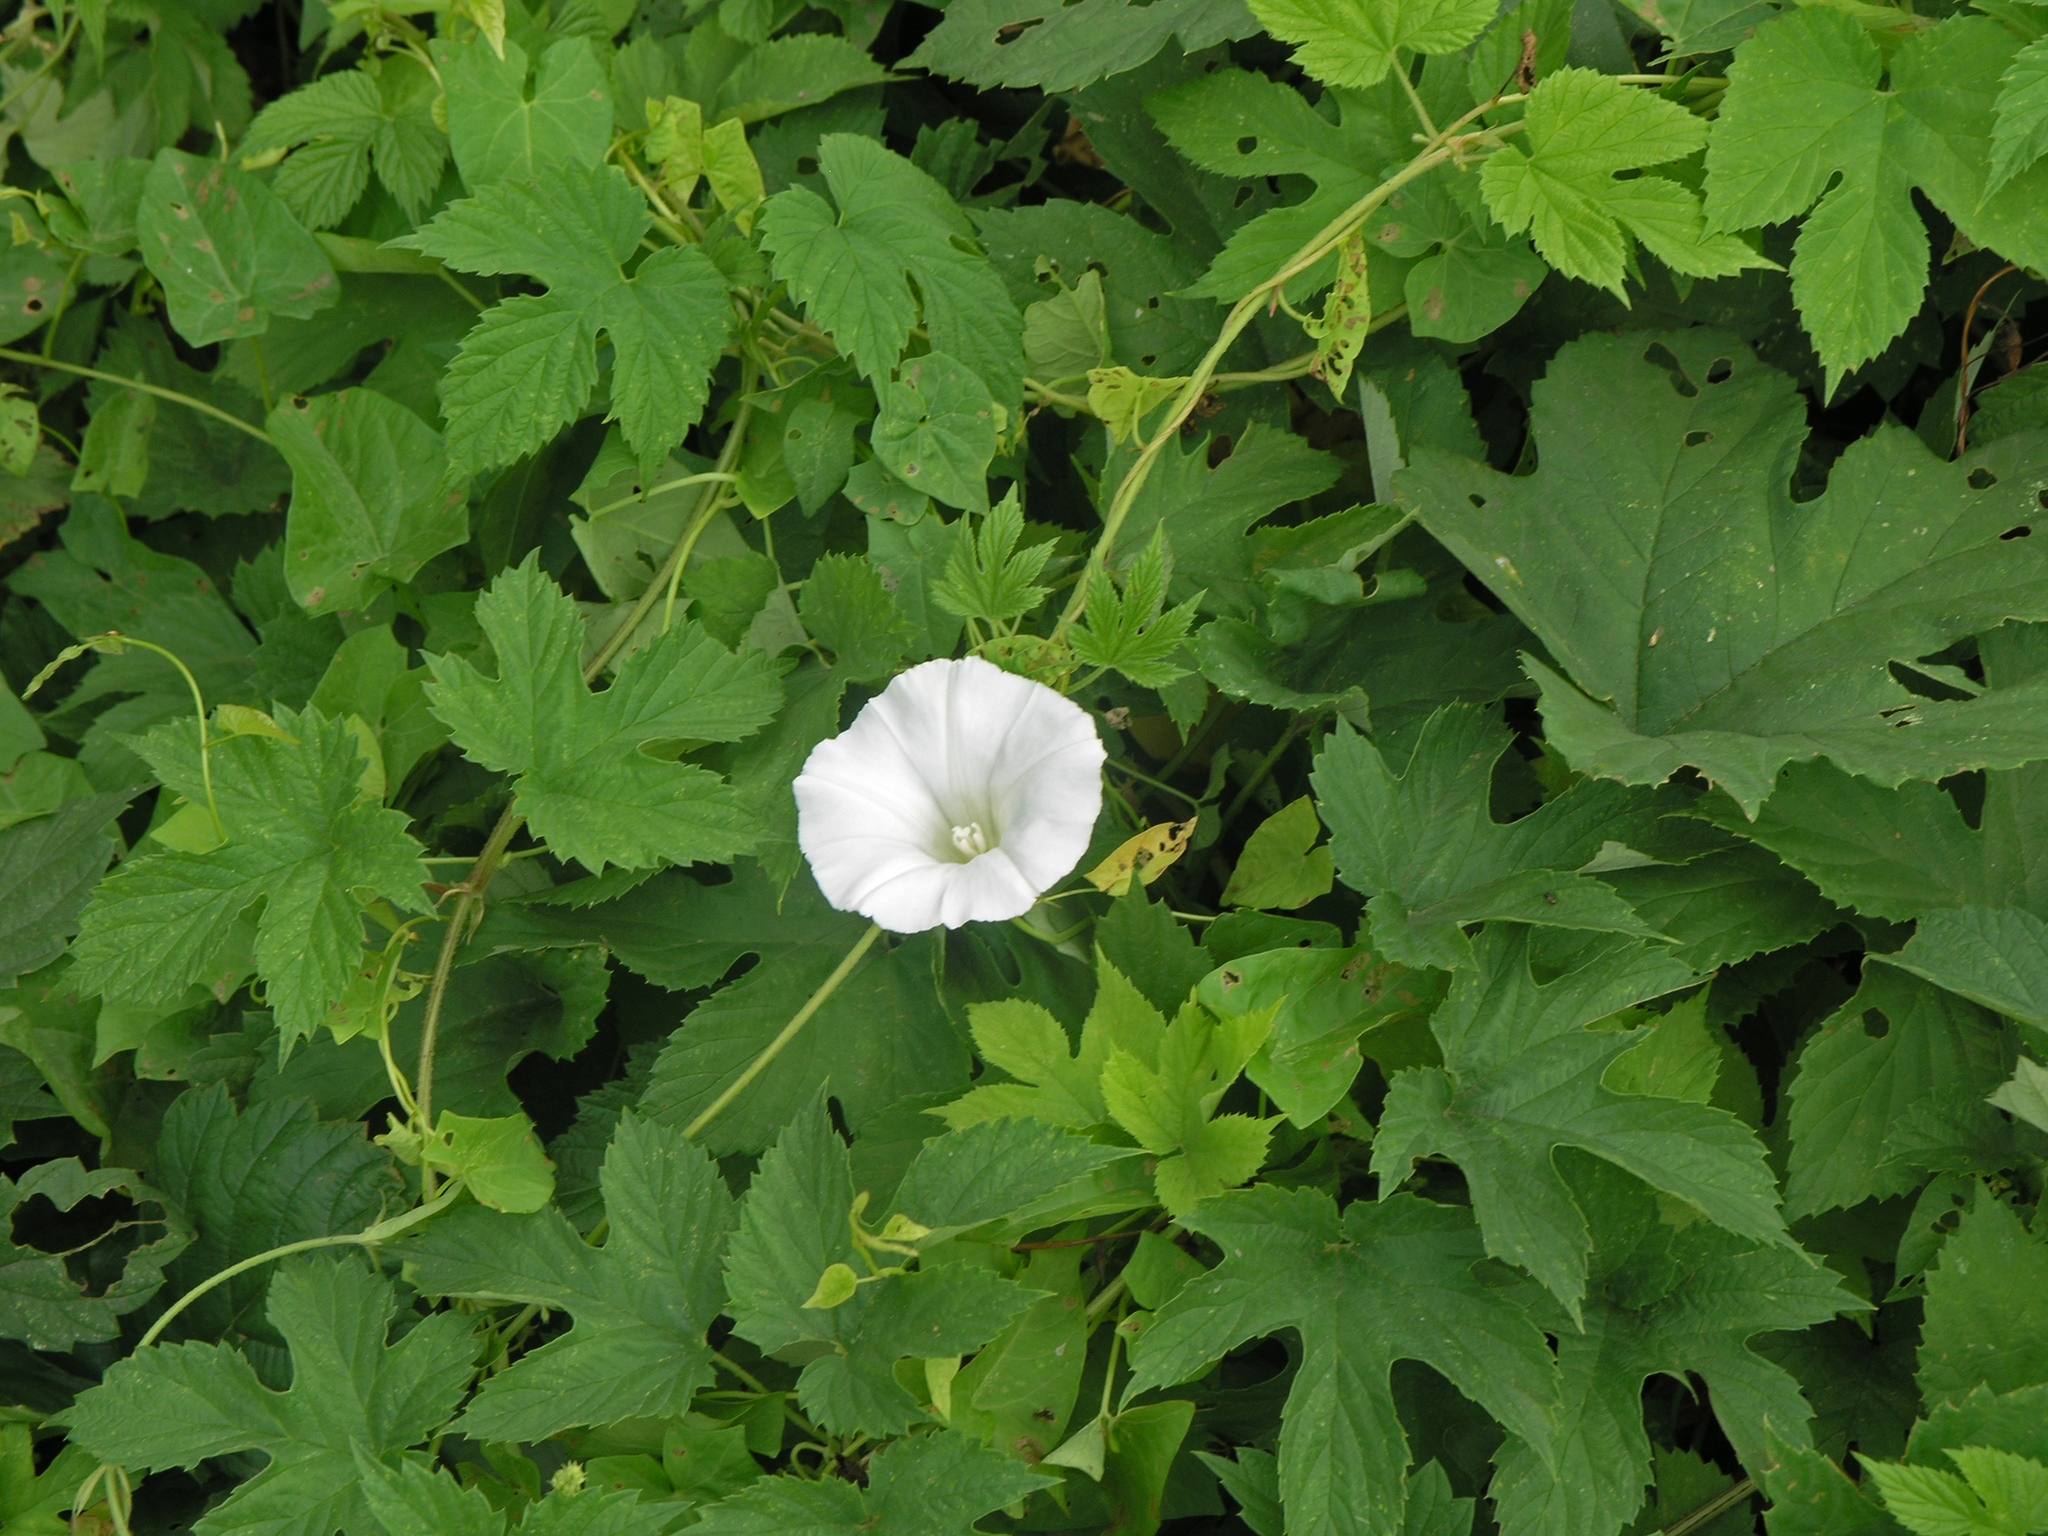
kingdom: Plantae
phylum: Tracheophyta
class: Magnoliopsida
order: Solanales
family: Convolvulaceae
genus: Calystegia
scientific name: Calystegia sepium
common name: Hedge bindweed
